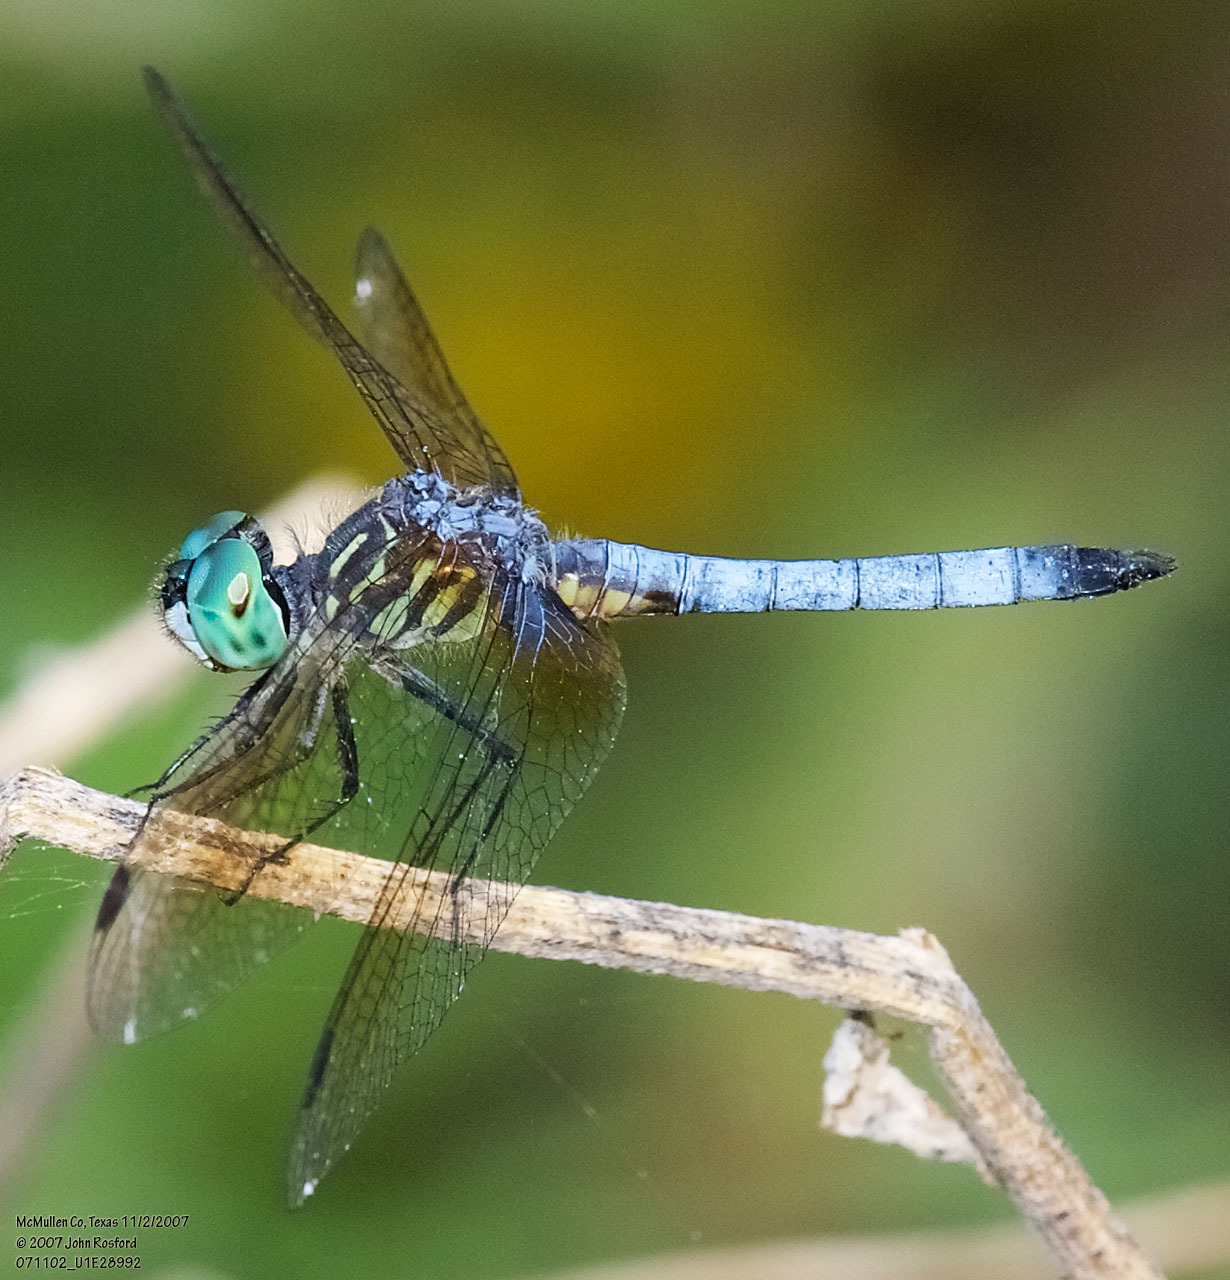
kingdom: Animalia
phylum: Arthropoda
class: Insecta
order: Odonata
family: Libellulidae
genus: Pachydiplax
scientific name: Pachydiplax longipennis
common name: Blue dasher
